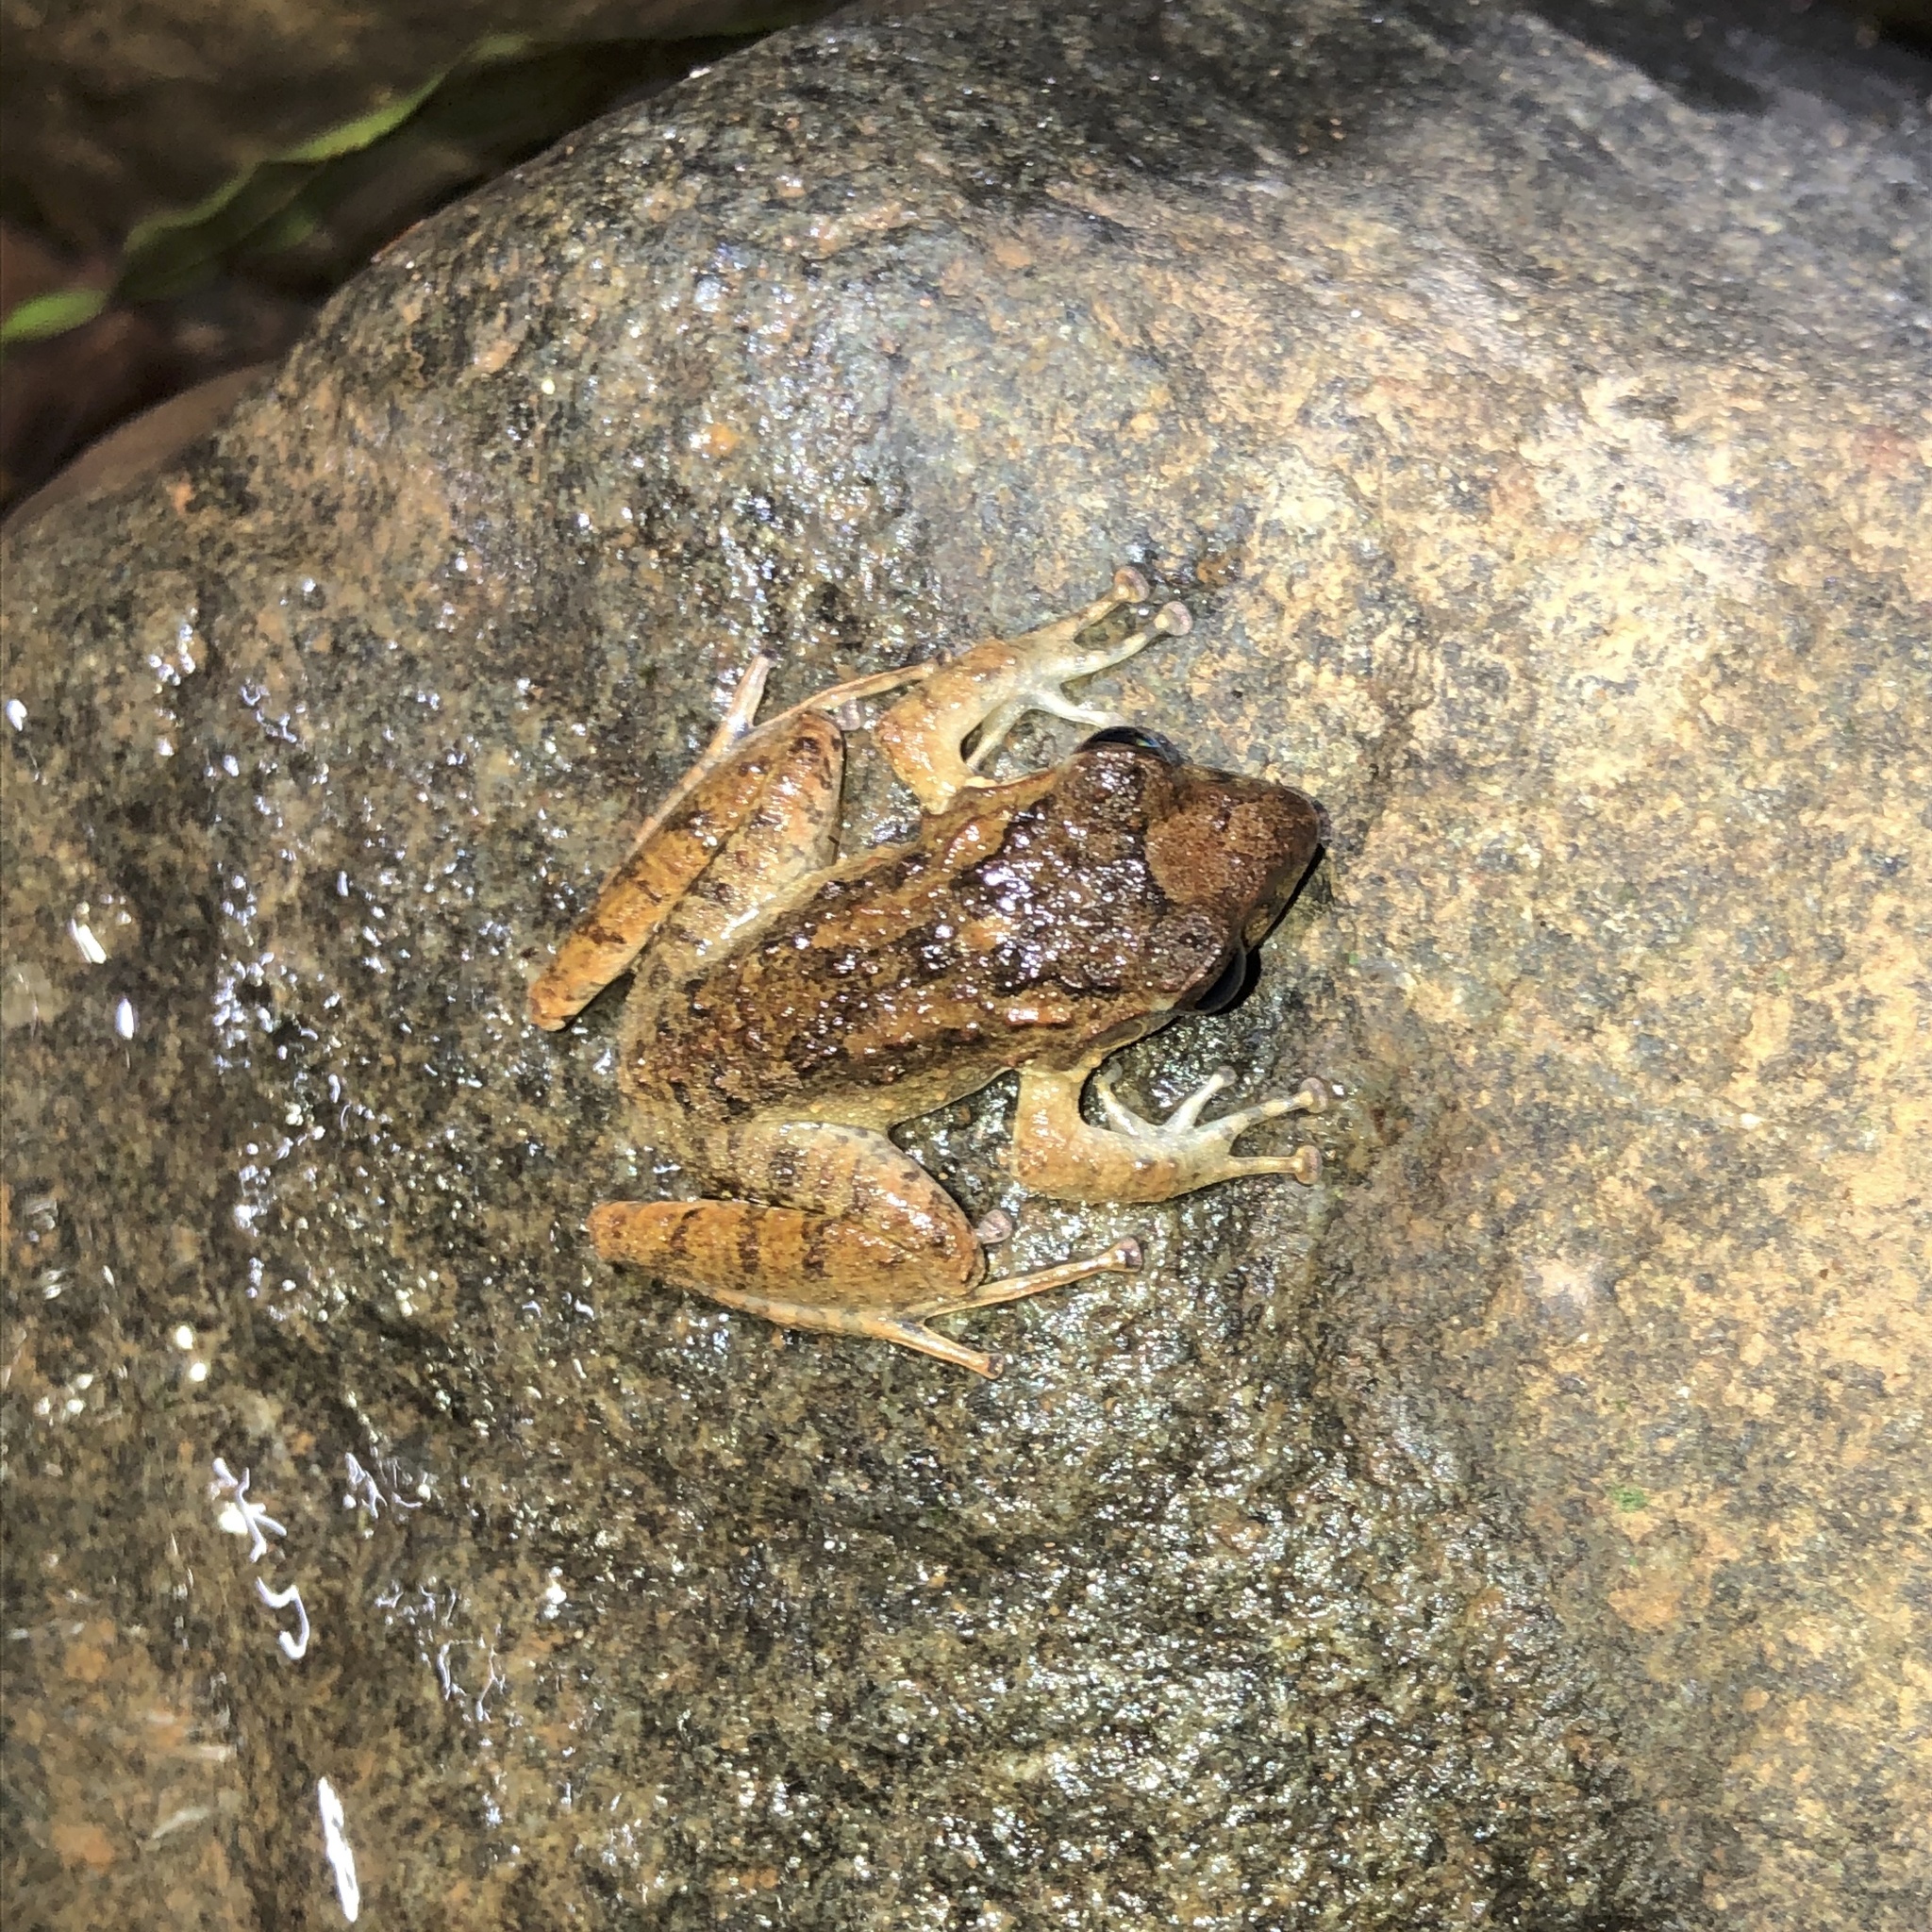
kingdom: Animalia
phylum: Chordata
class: Amphibia
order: Anura
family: Craugastoridae
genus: Craugastor
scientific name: Craugastor fitzingeri
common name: Fitzinger's robber frog
